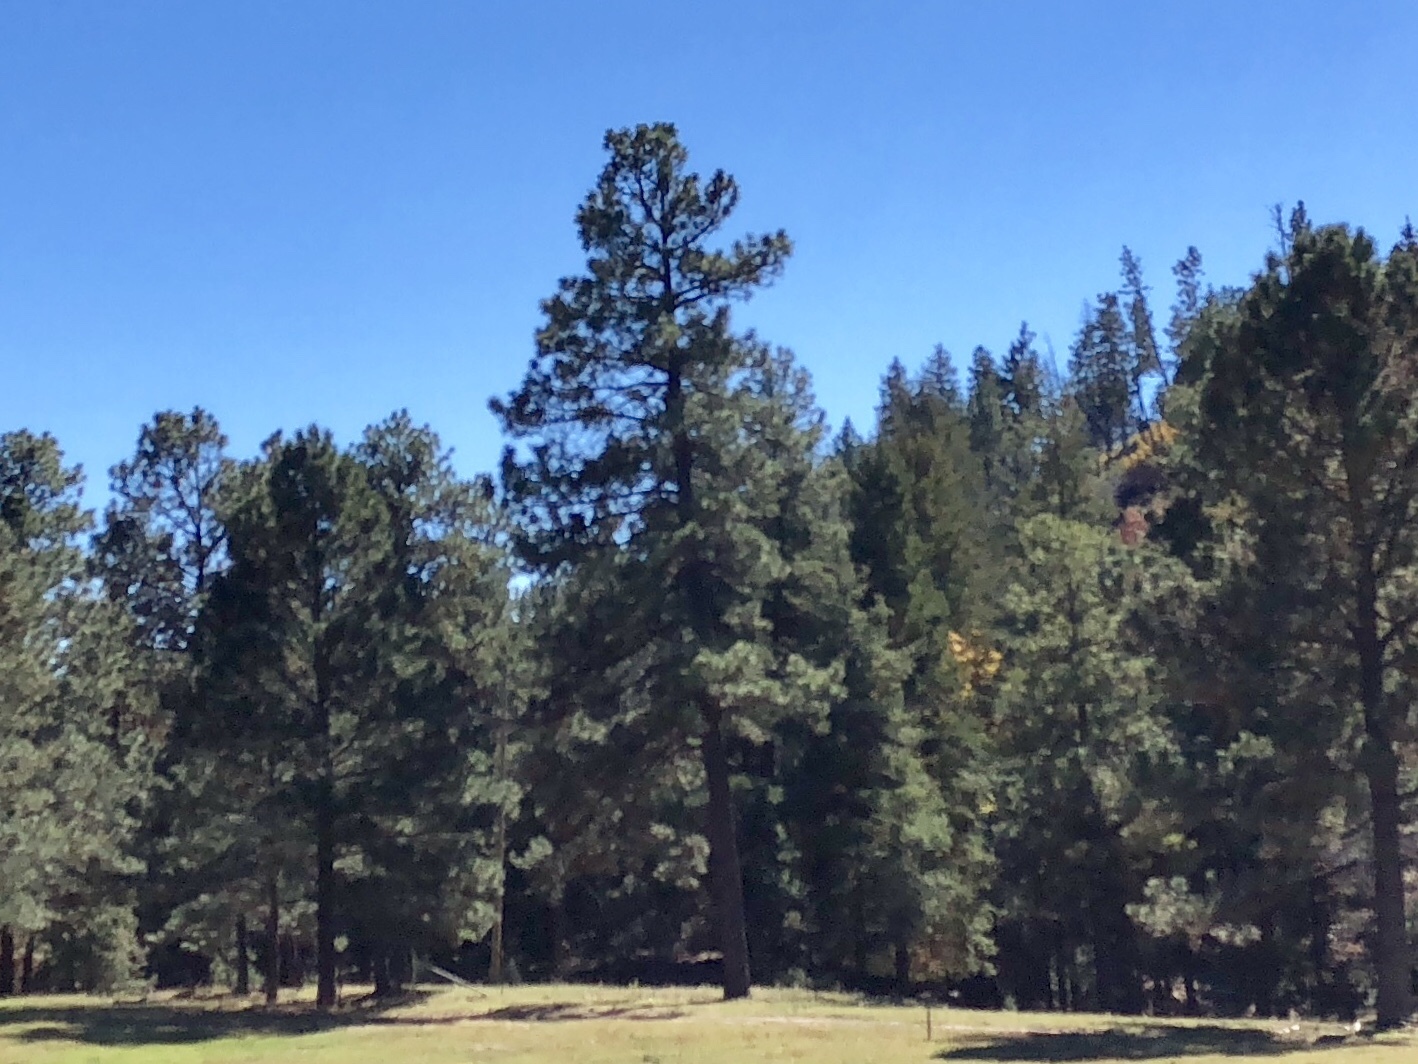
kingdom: Plantae
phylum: Tracheophyta
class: Pinopsida
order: Pinales
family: Pinaceae
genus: Pinus
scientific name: Pinus ponderosa
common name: Western yellow-pine
